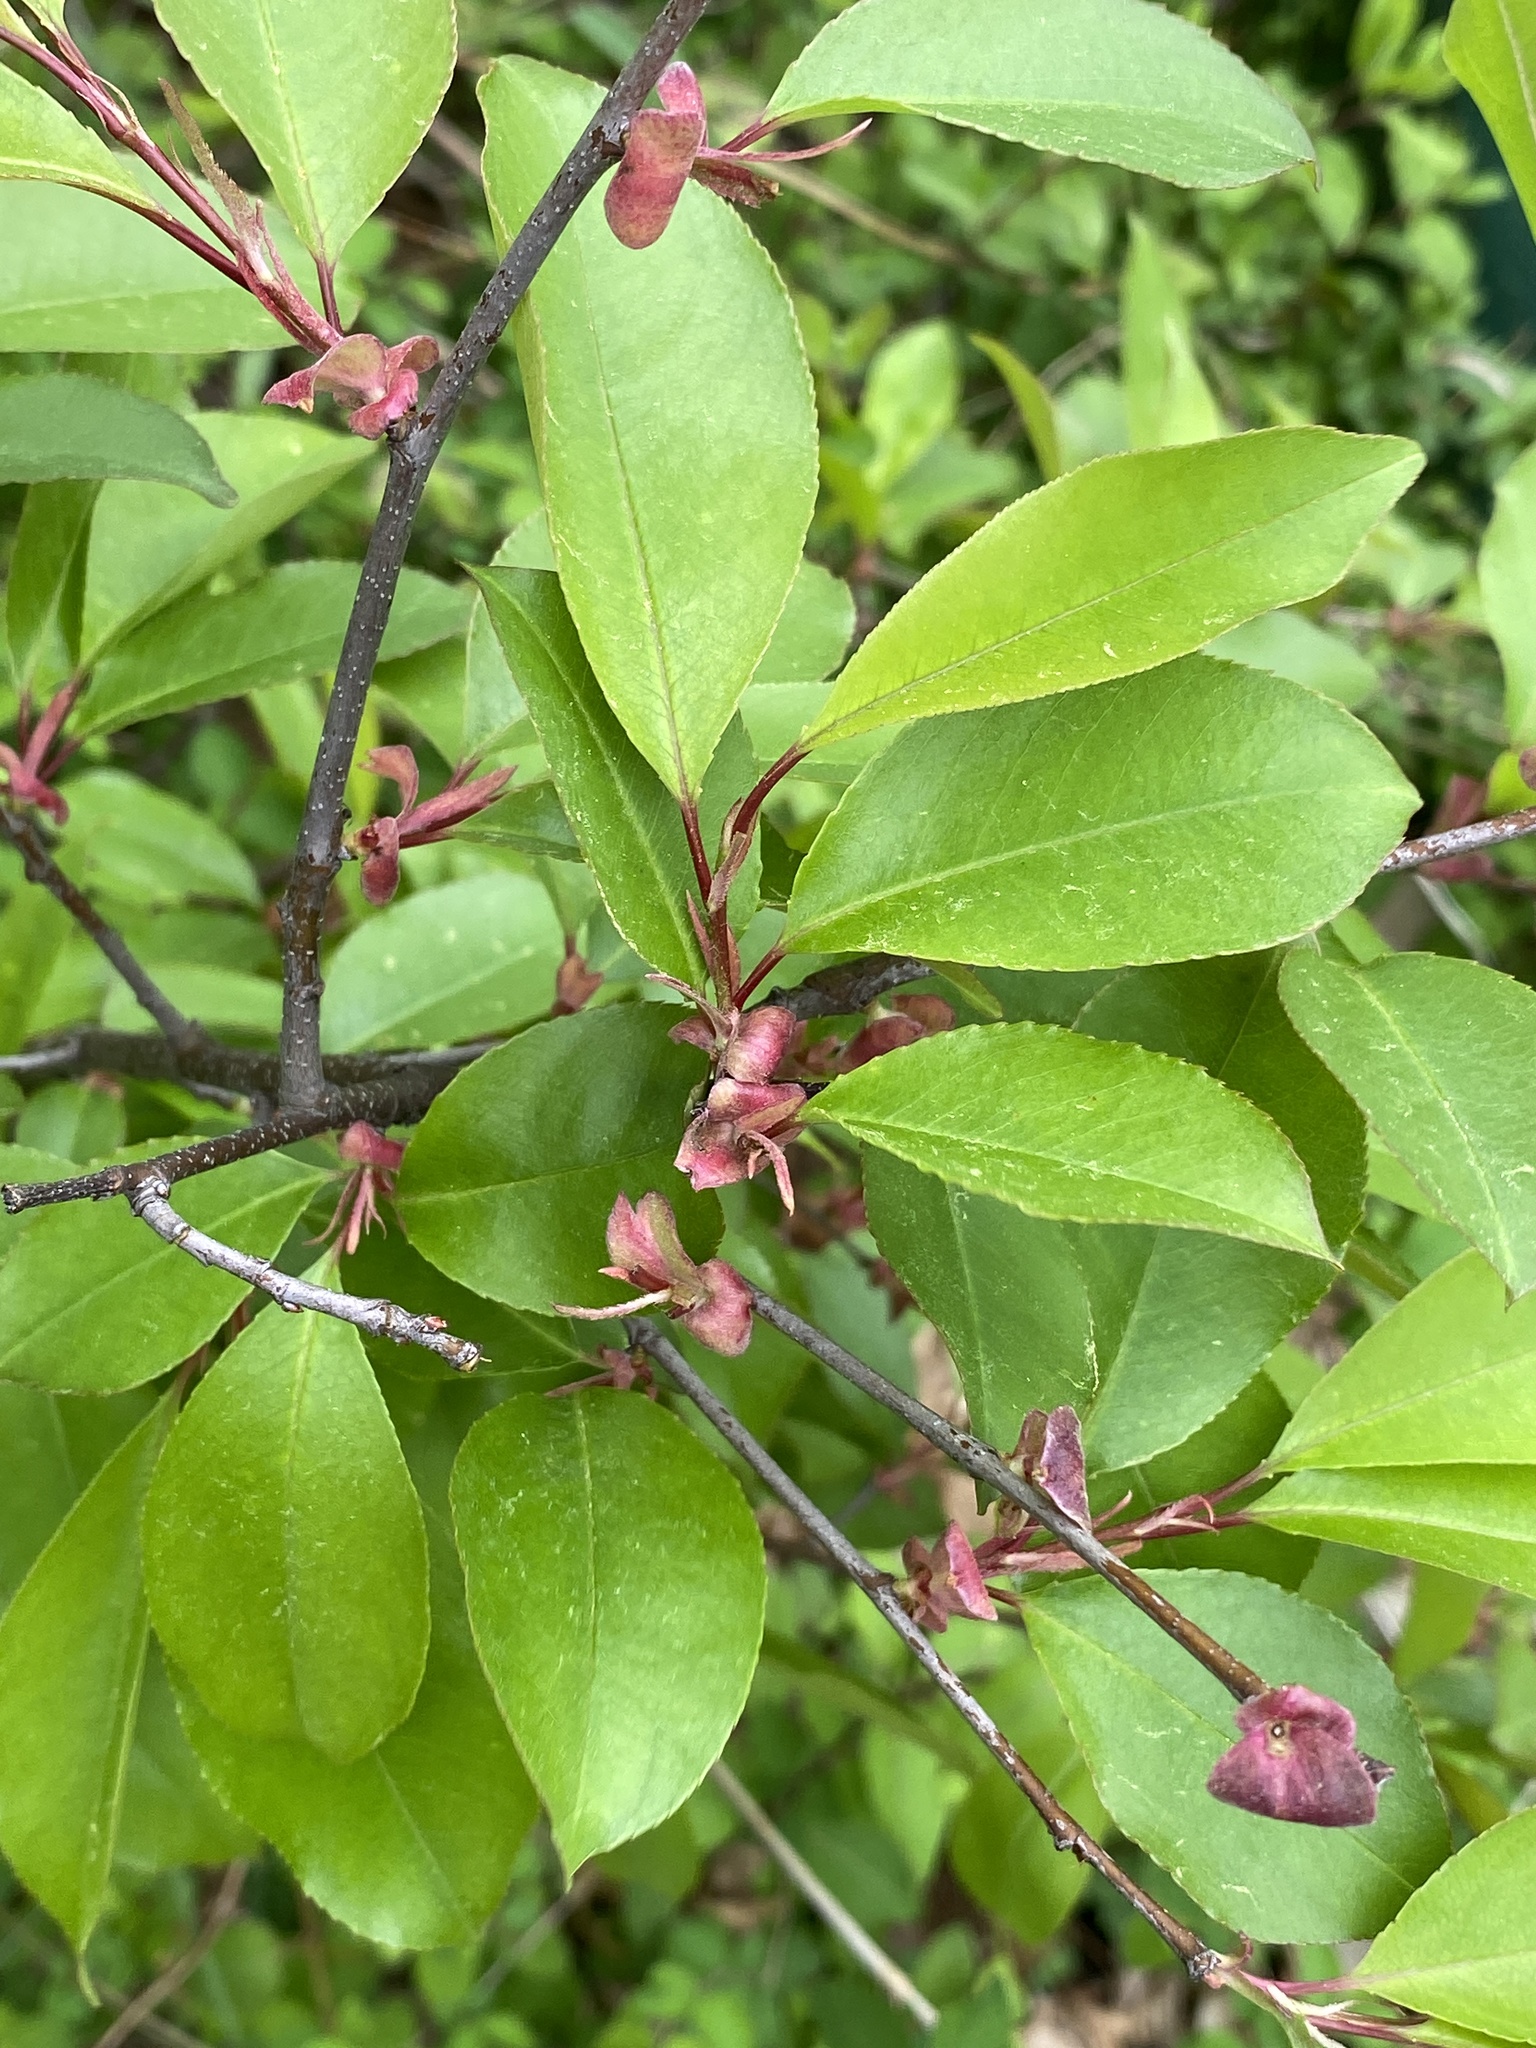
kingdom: Plantae
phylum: Tracheophyta
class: Magnoliopsida
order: Rosales
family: Rosaceae
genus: Prunus
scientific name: Prunus serotina
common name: Black cherry
